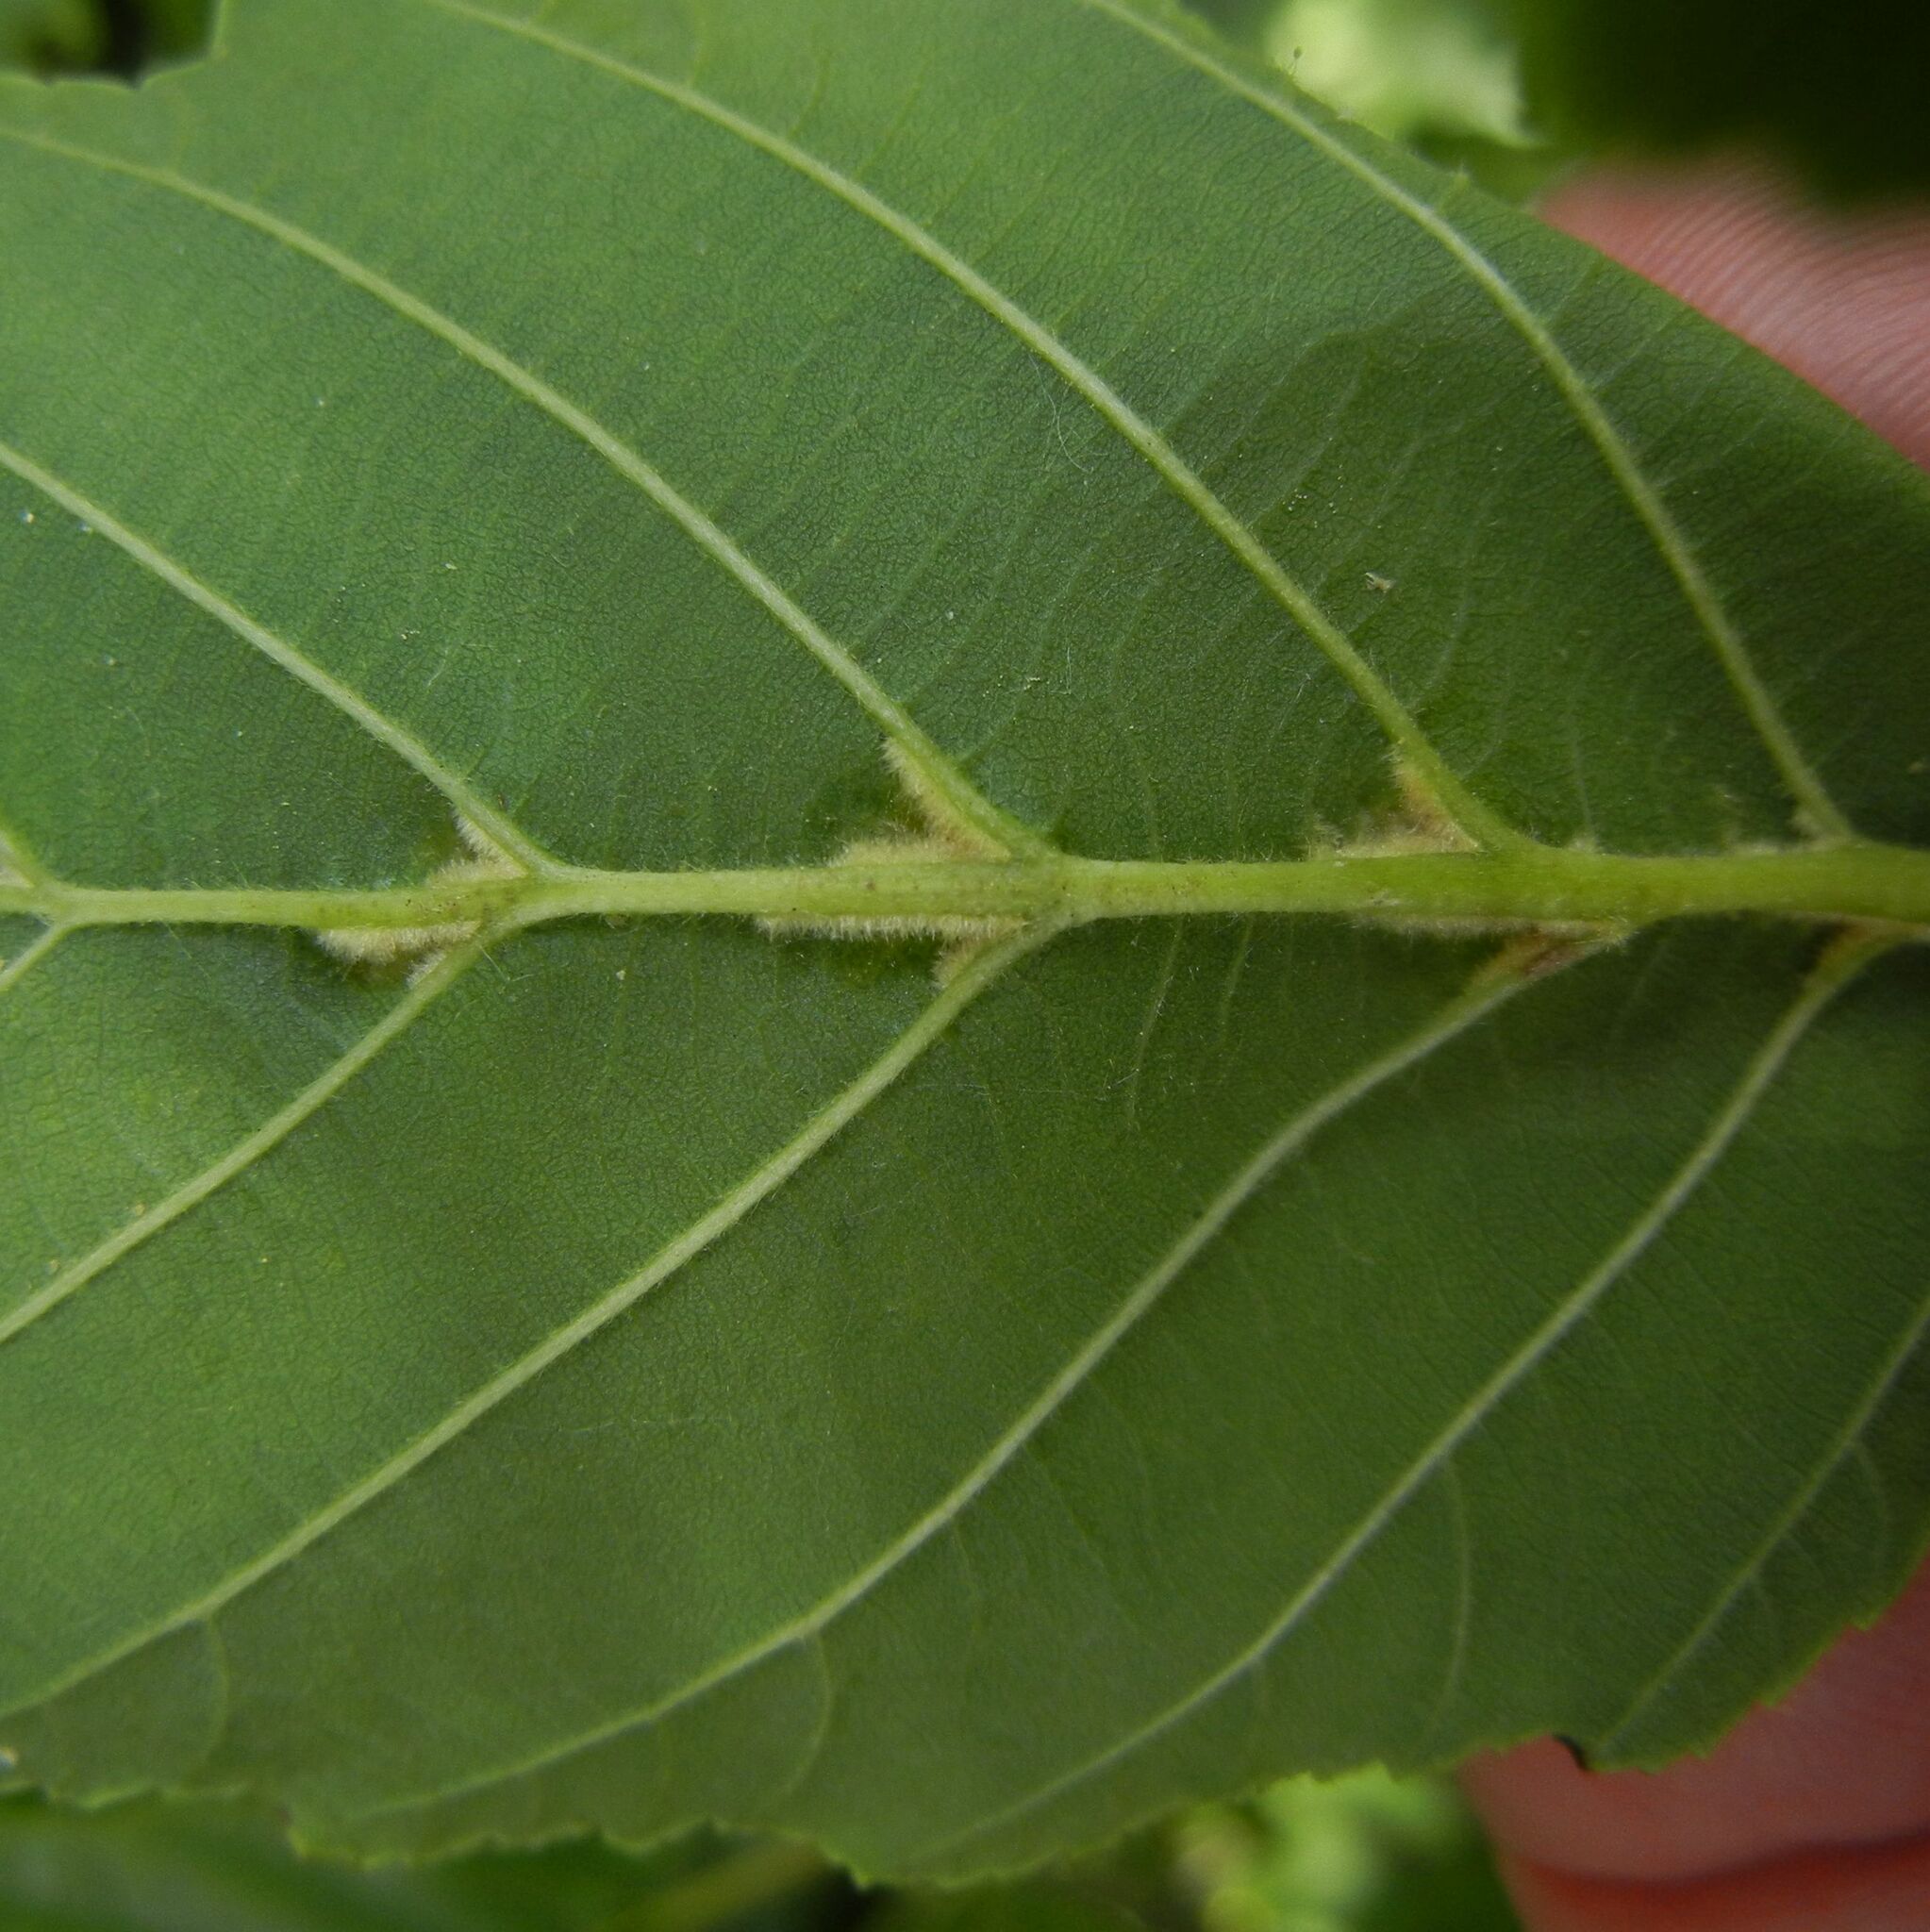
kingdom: Animalia
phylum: Arthropoda
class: Arachnida
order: Trombidiformes
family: Eriophyidae
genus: Eriophyes
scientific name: Eriophyes inangulis
